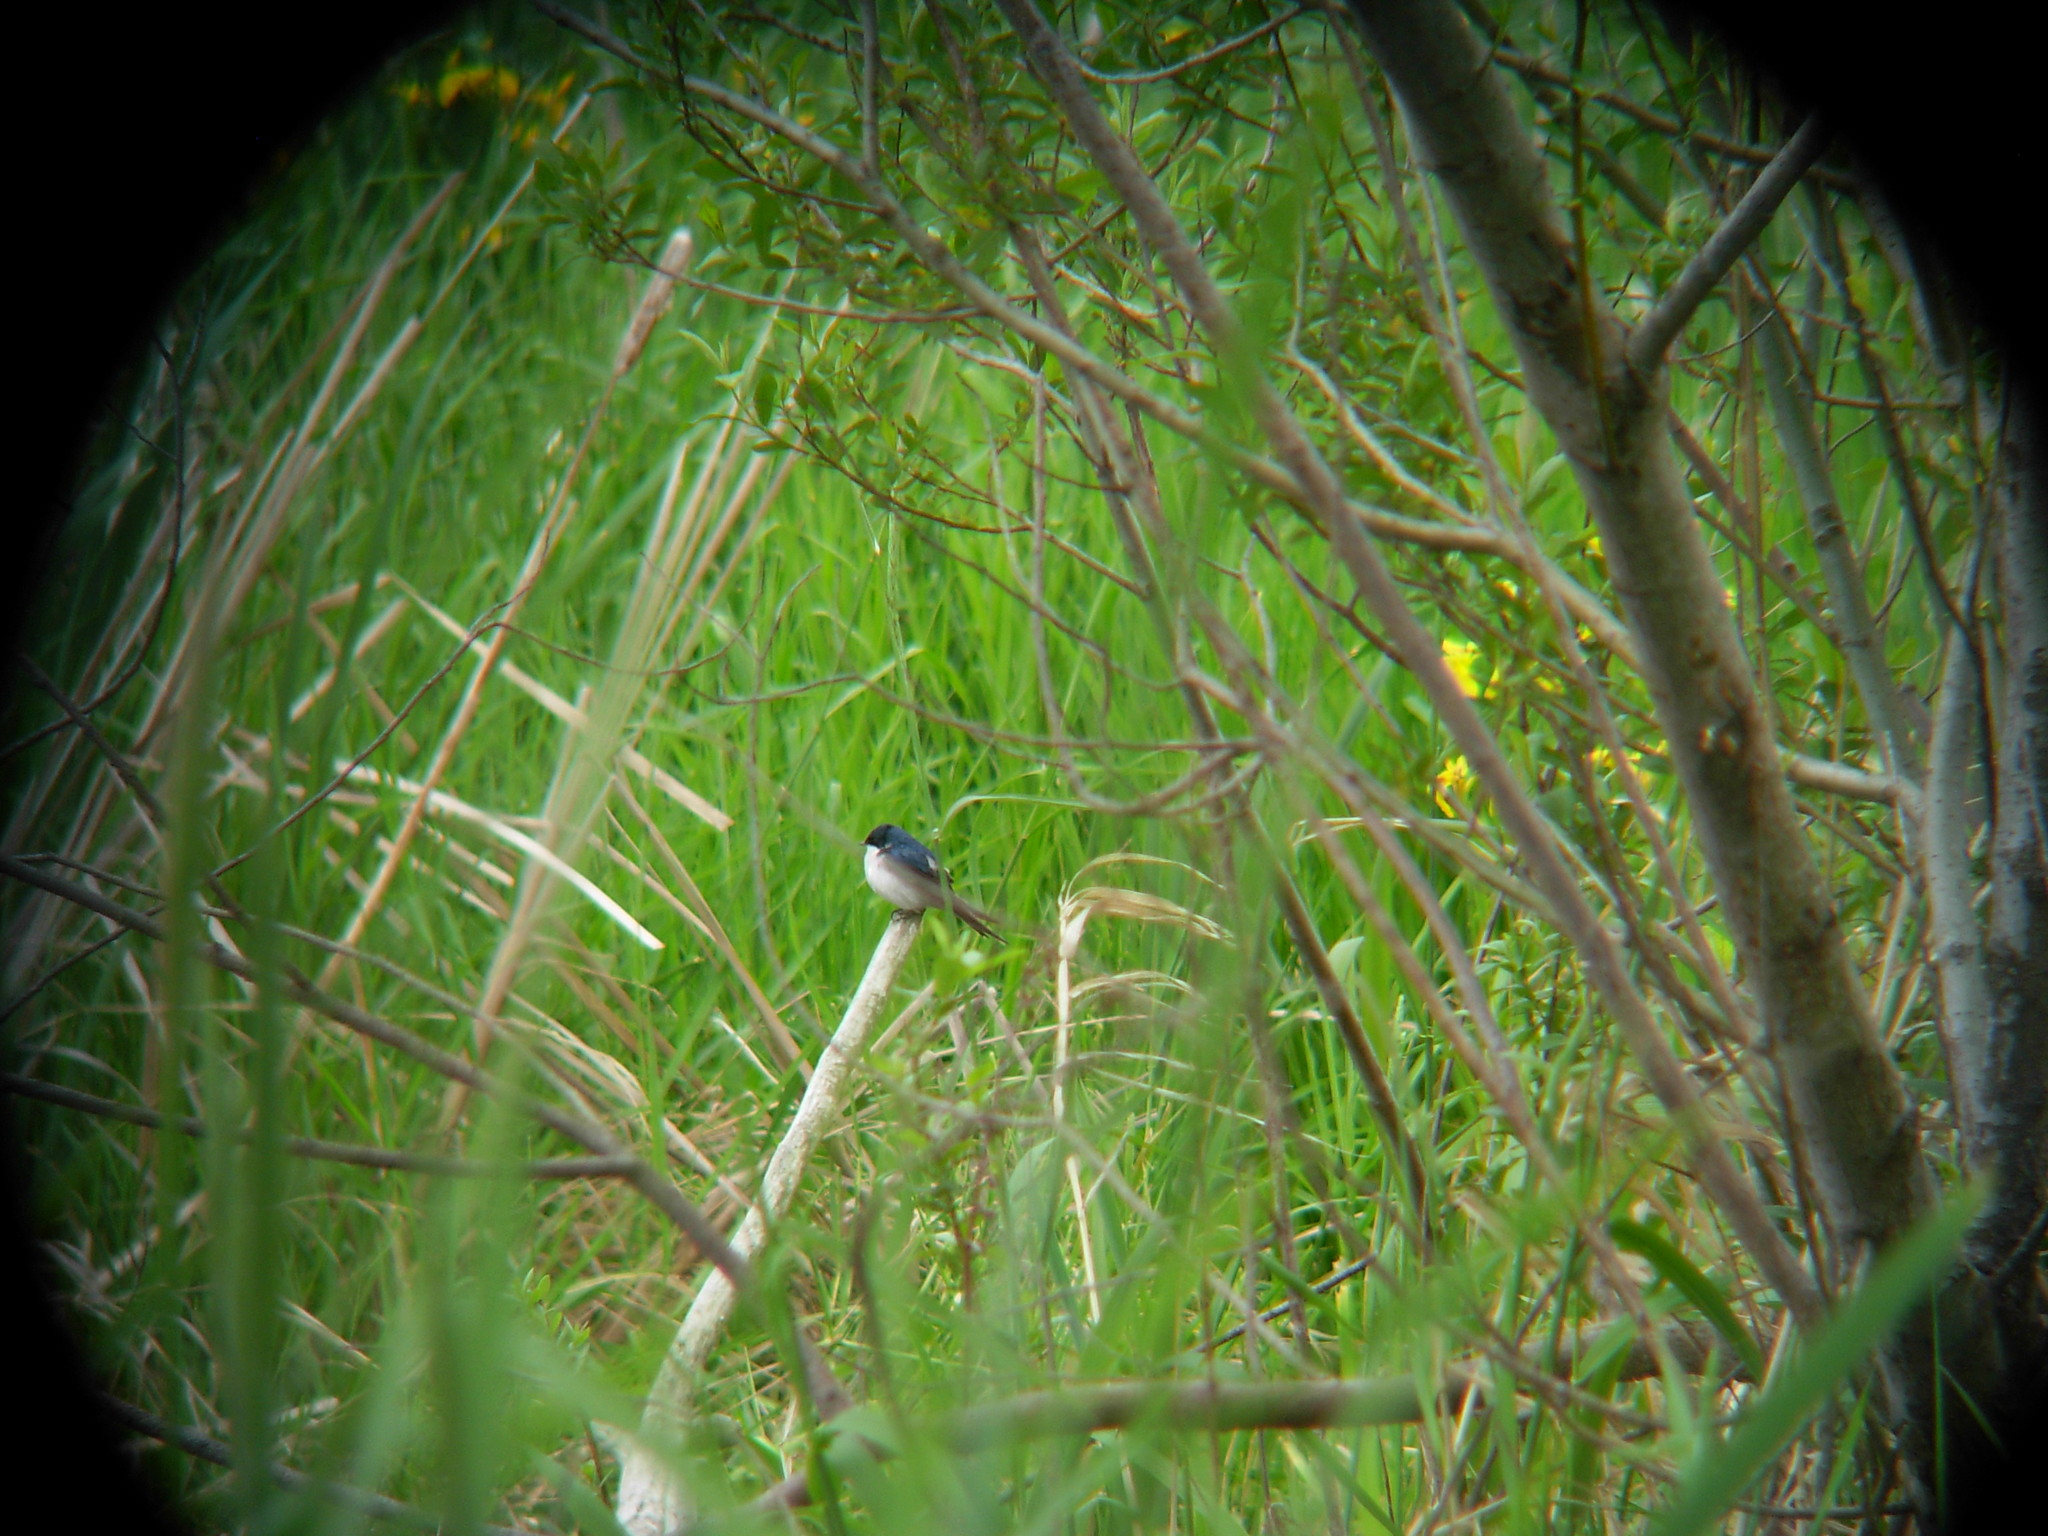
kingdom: Animalia
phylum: Chordata
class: Aves
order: Passeriformes
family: Hirundinidae
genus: Tachycineta
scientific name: Tachycineta bicolor
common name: Tree swallow
